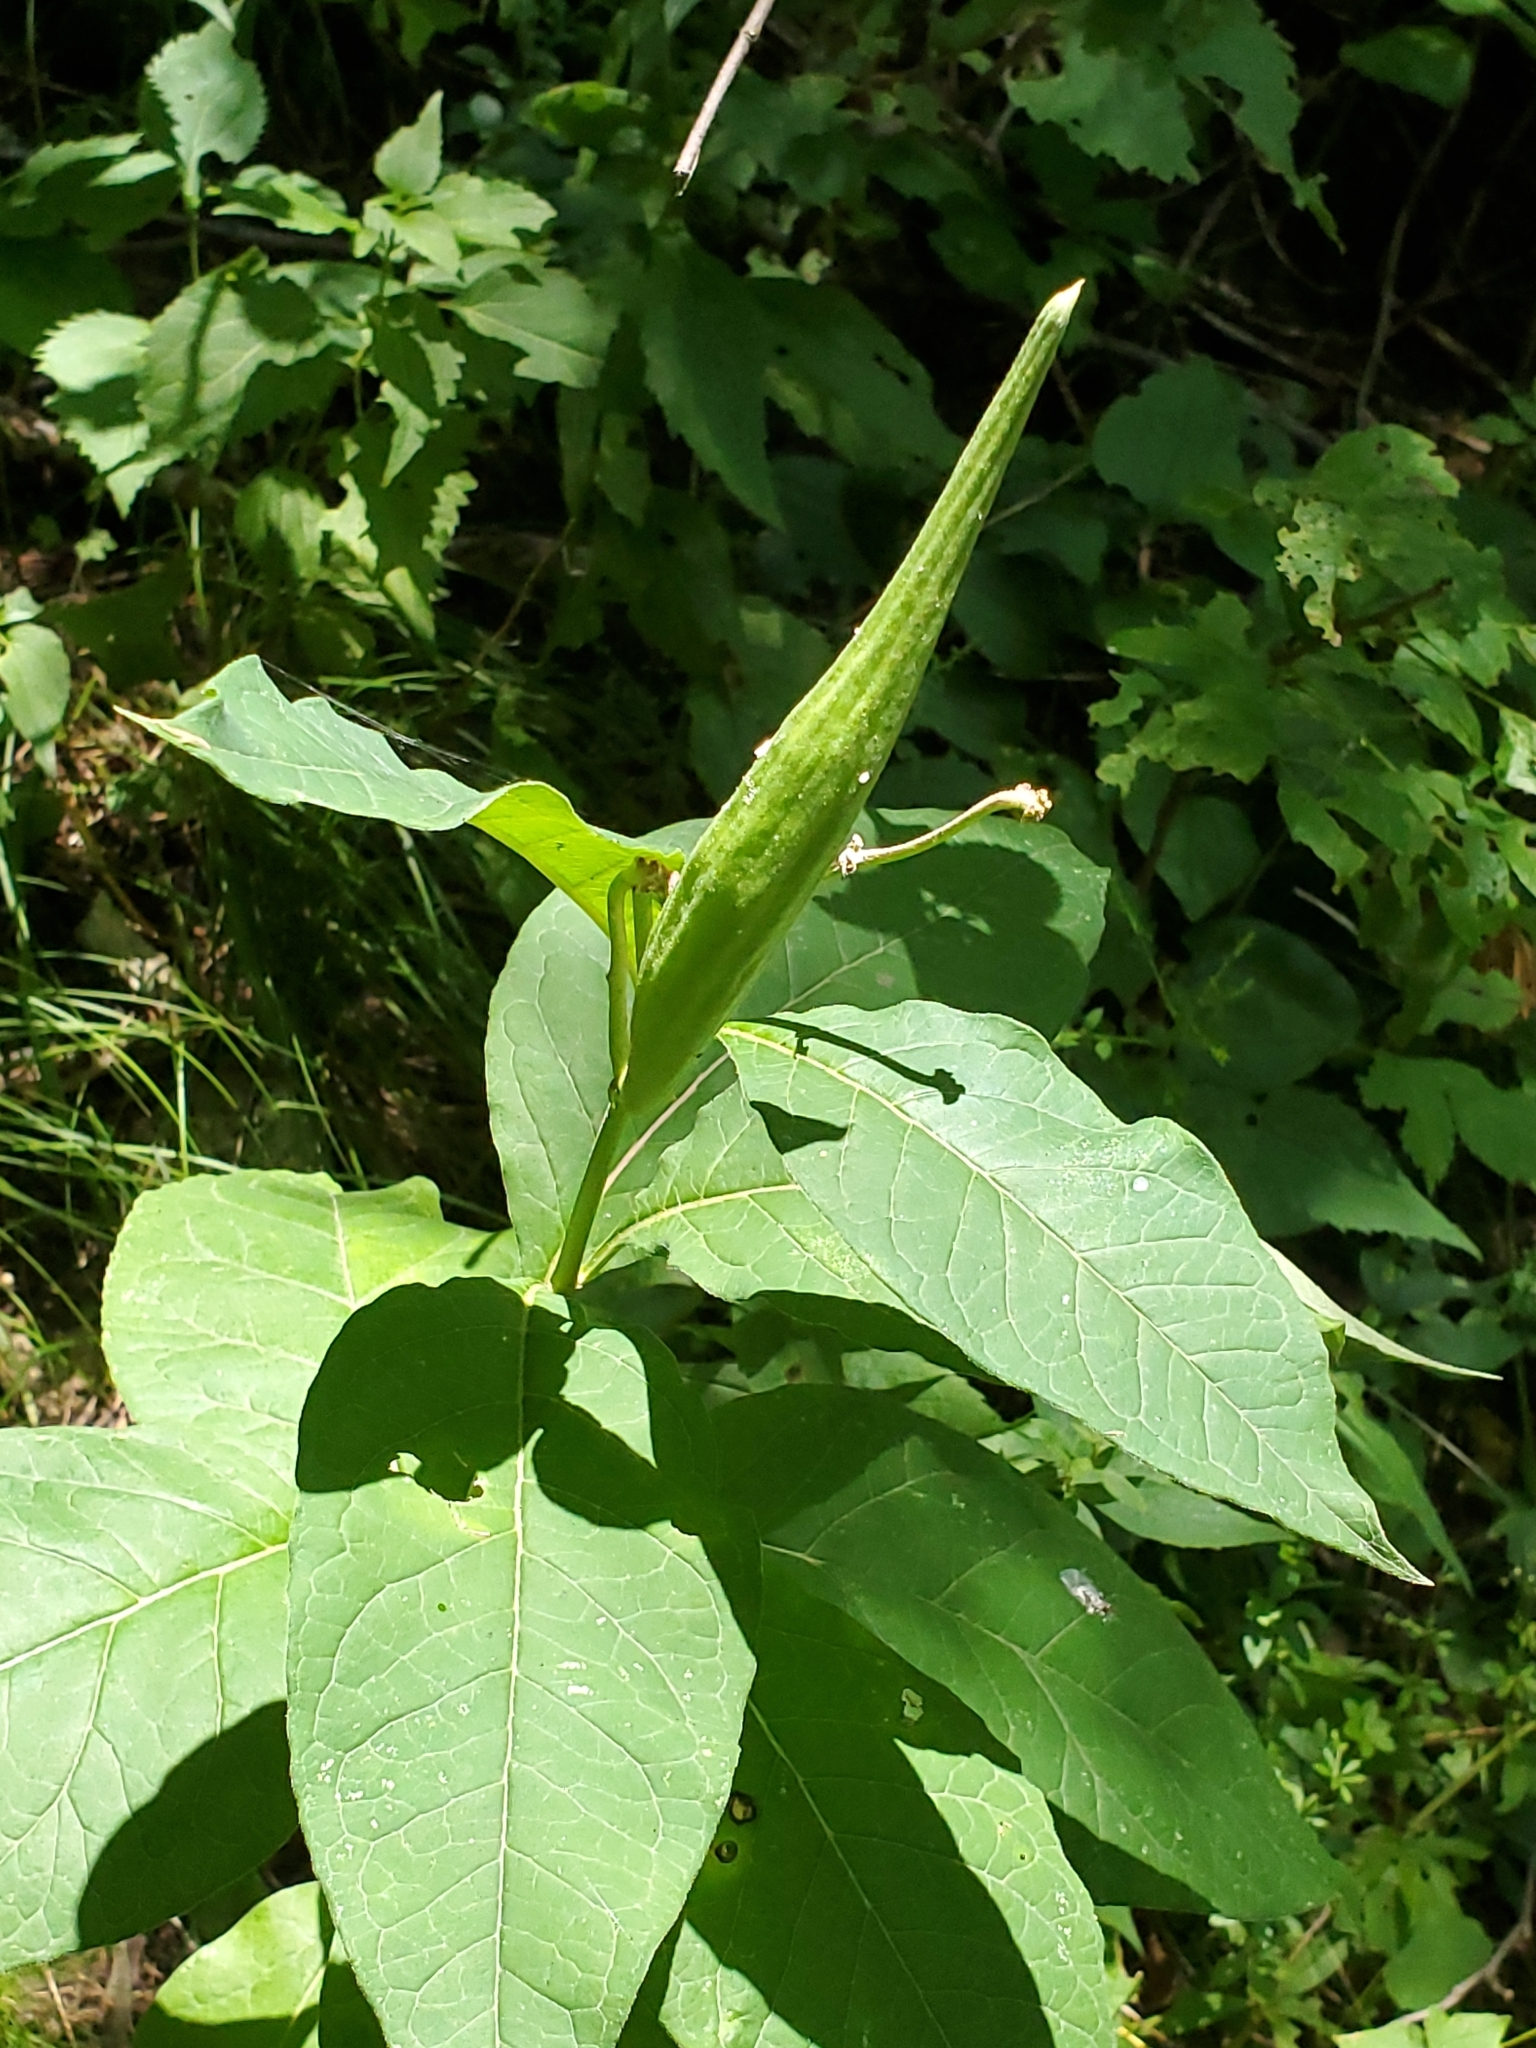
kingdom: Plantae
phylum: Tracheophyta
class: Magnoliopsida
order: Gentianales
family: Apocynaceae
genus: Asclepias
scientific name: Asclepias exaltata
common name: Poke milkweed
